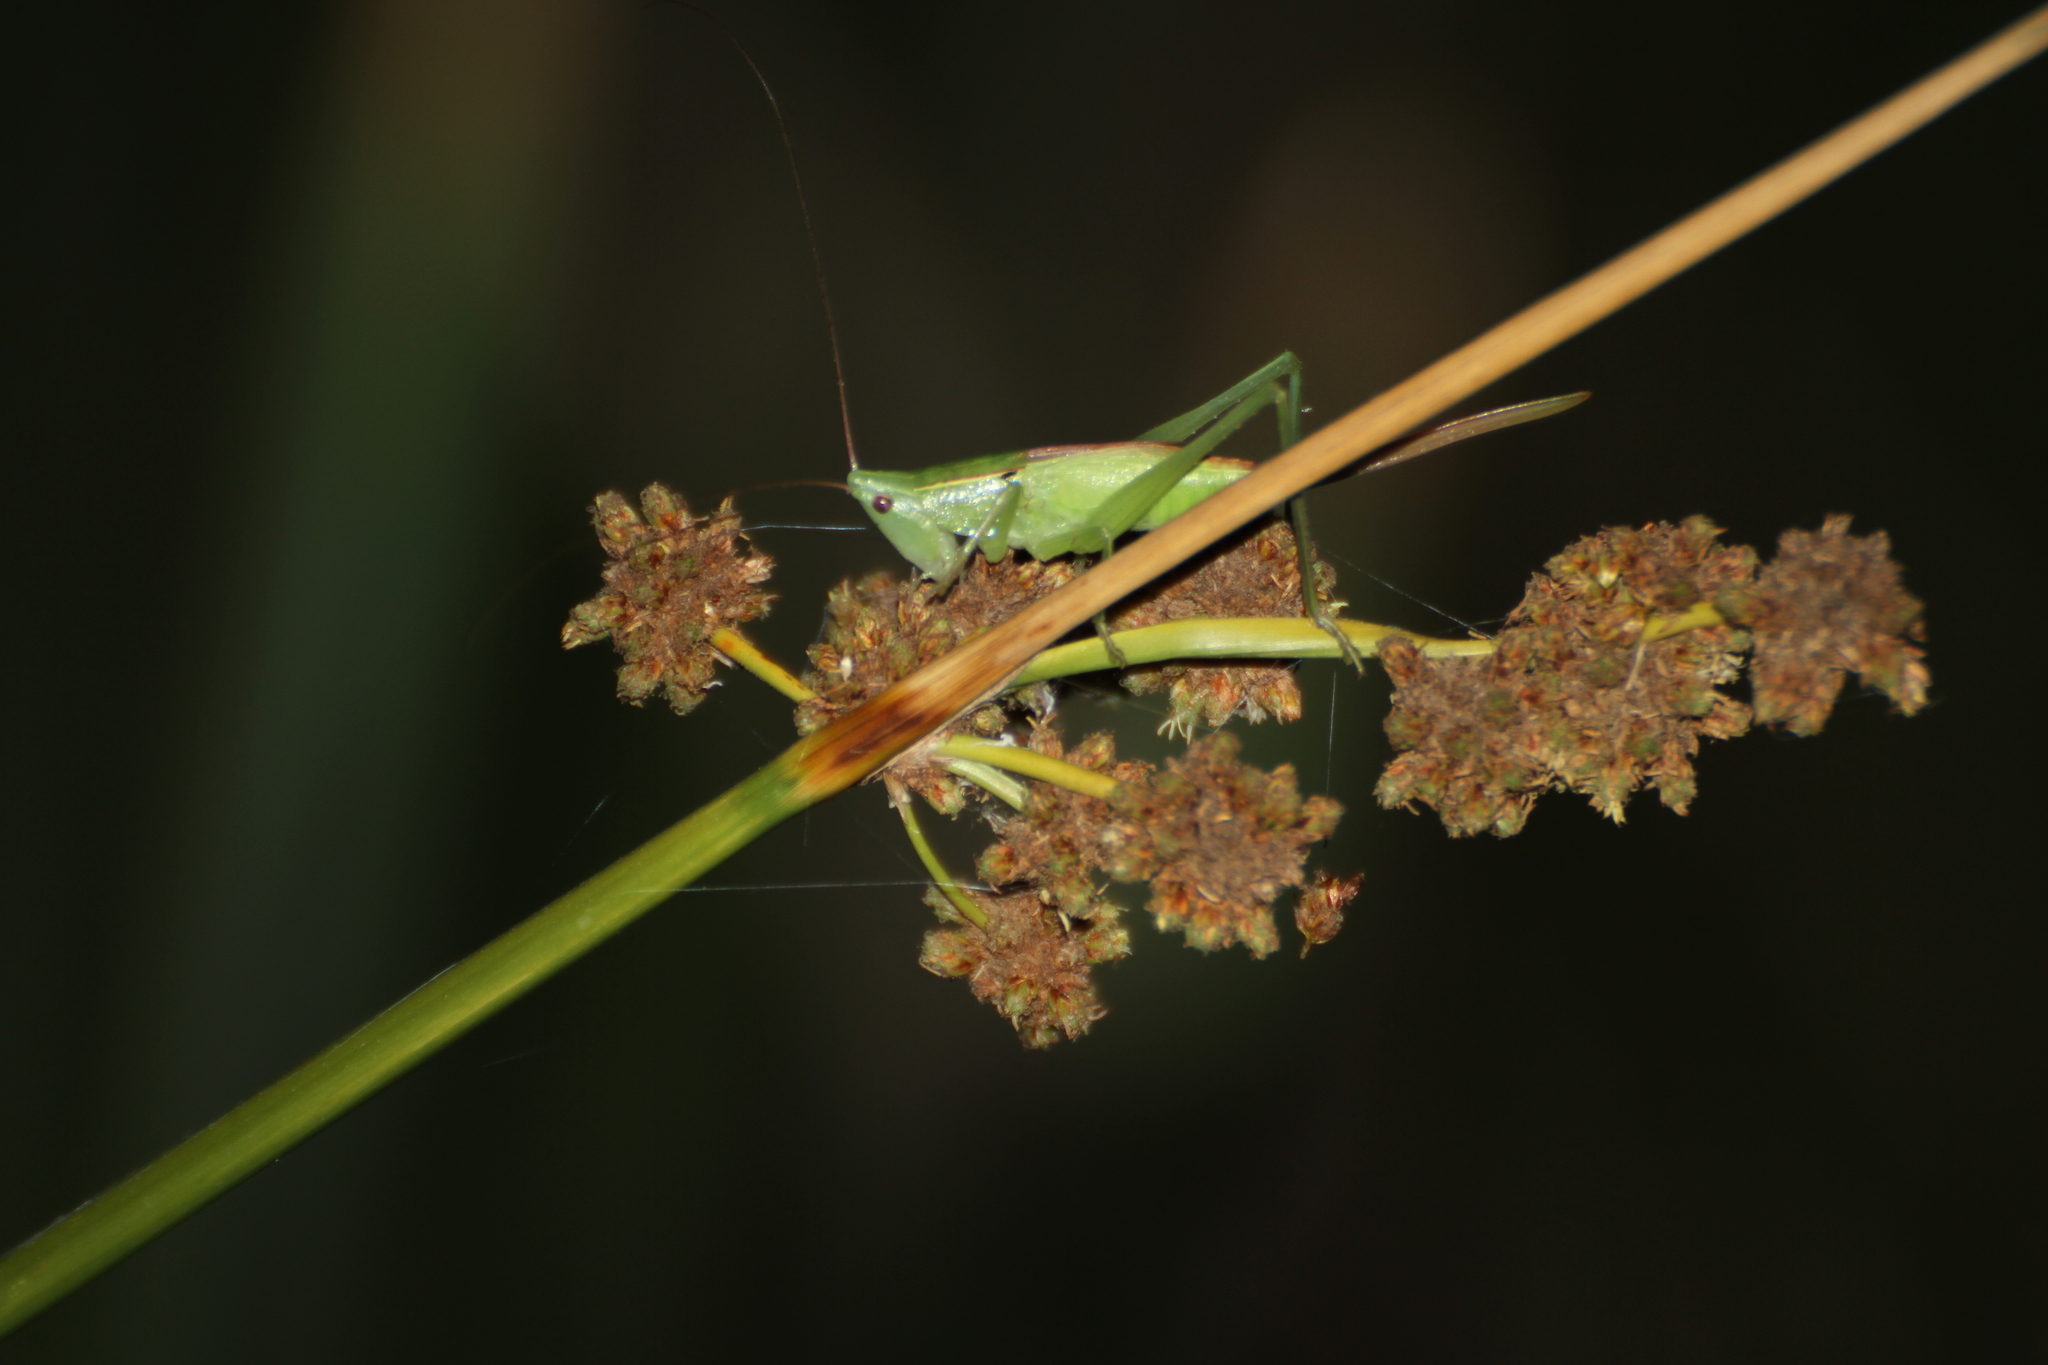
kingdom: Animalia
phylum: Arthropoda
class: Insecta
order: Orthoptera
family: Tettigoniidae
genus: Ruspolia
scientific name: Ruspolia nitidula
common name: Large conehead
